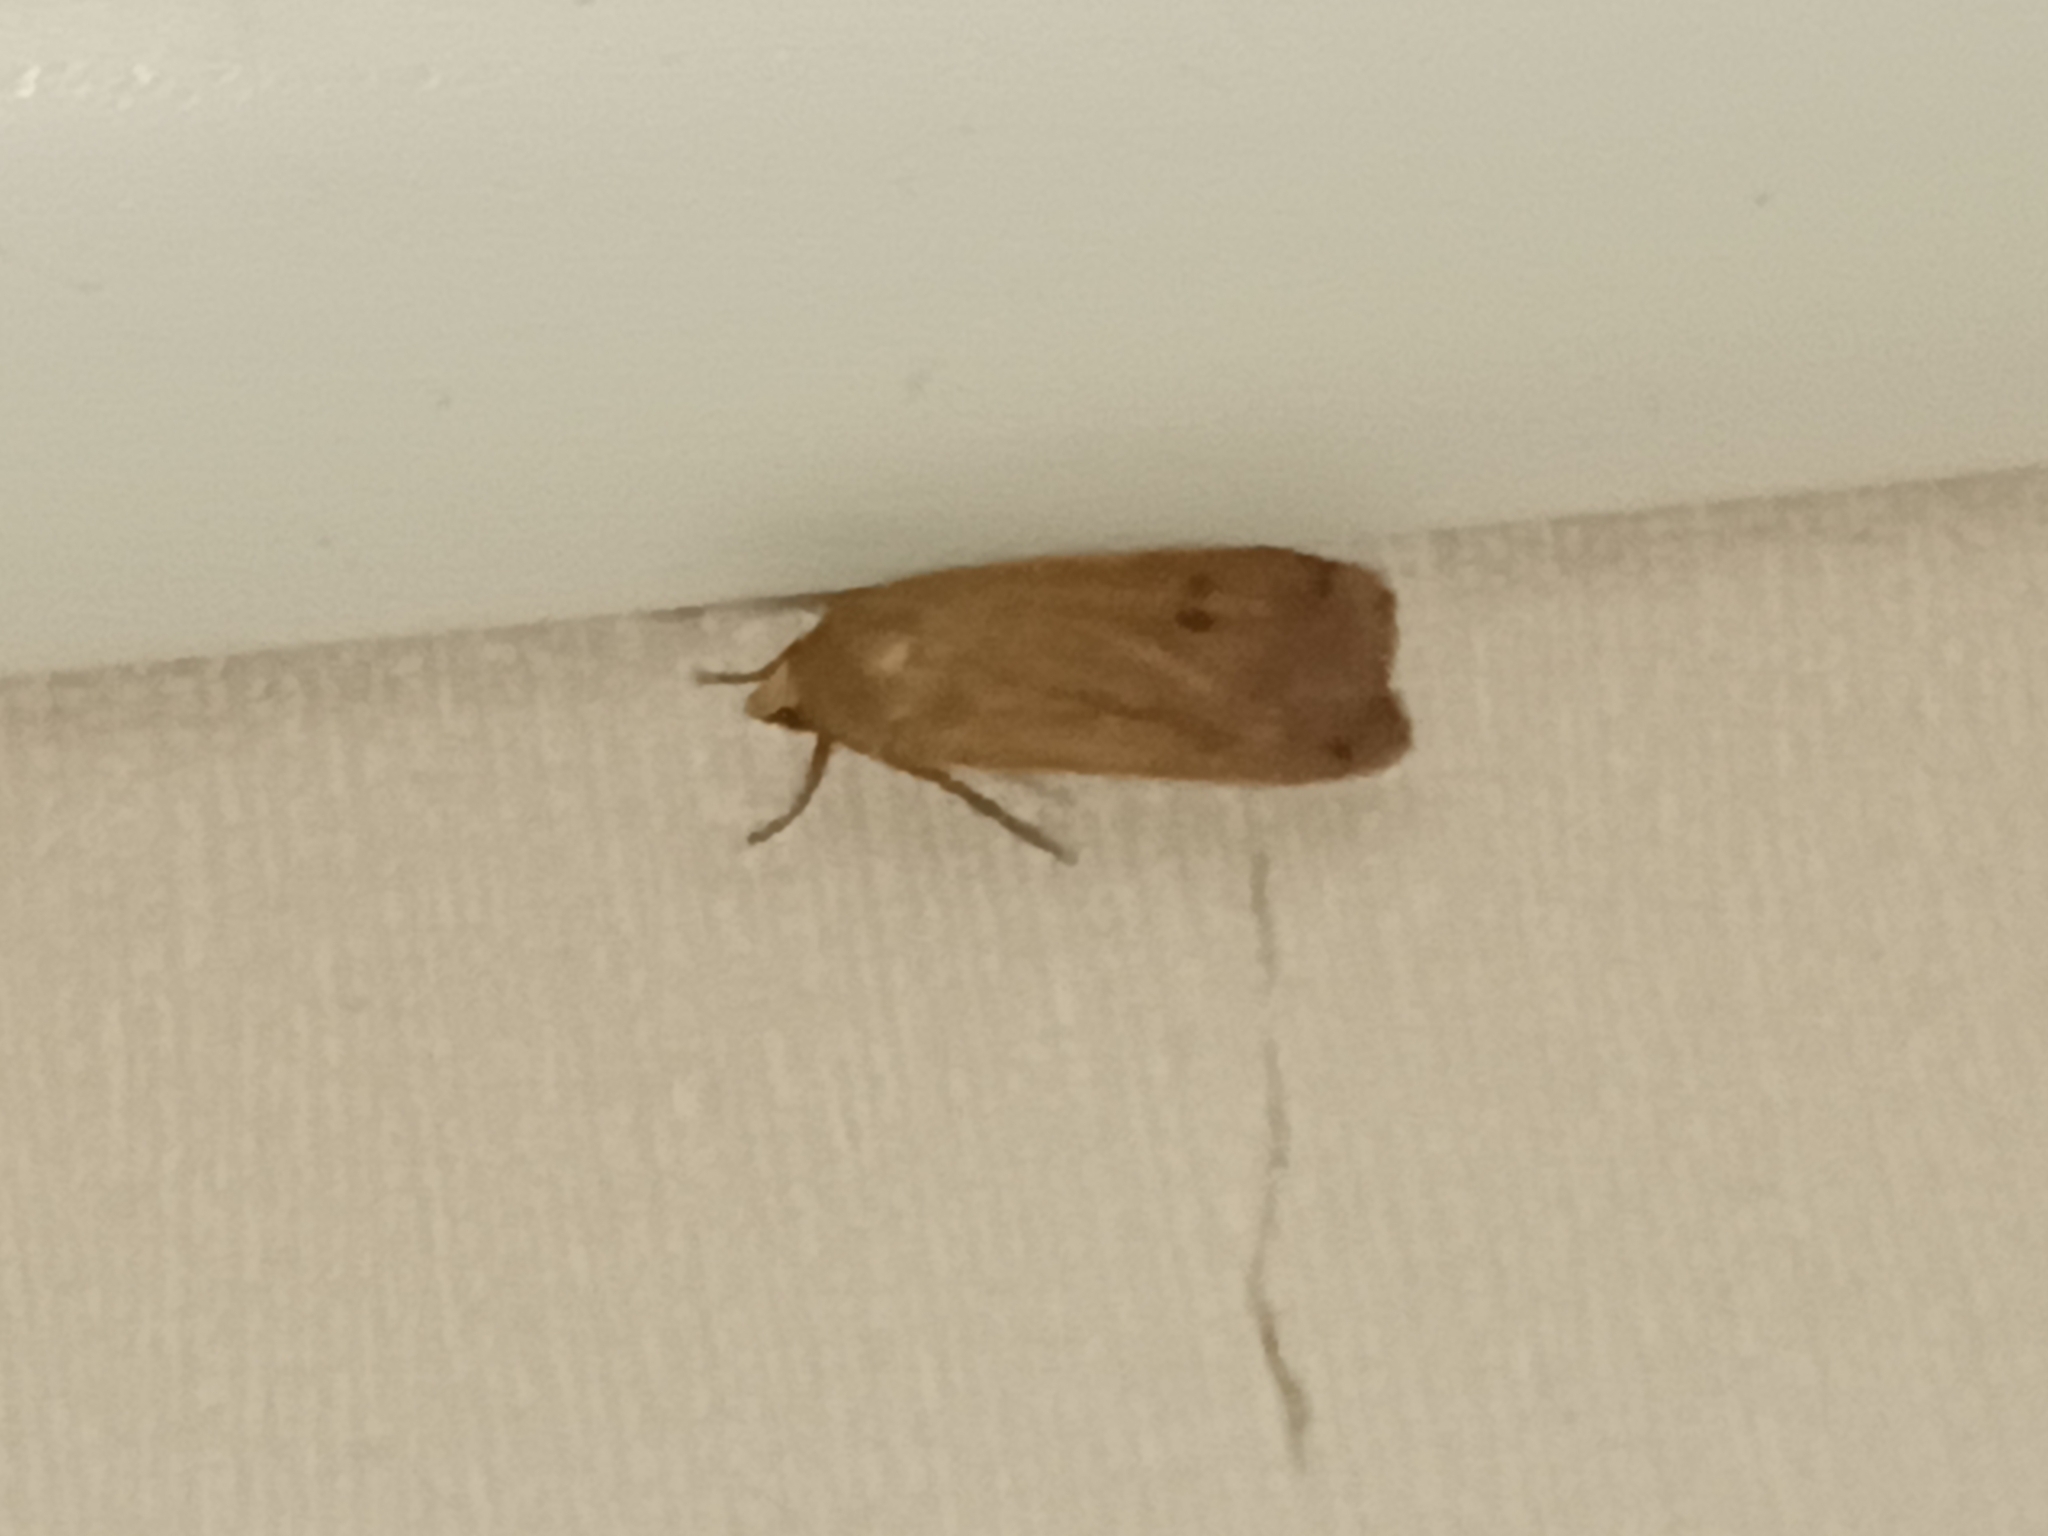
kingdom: Animalia
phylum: Arthropoda
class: Insecta
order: Lepidoptera
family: Noctuidae
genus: Noctua
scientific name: Noctua pronuba
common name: Large yellow underwing
